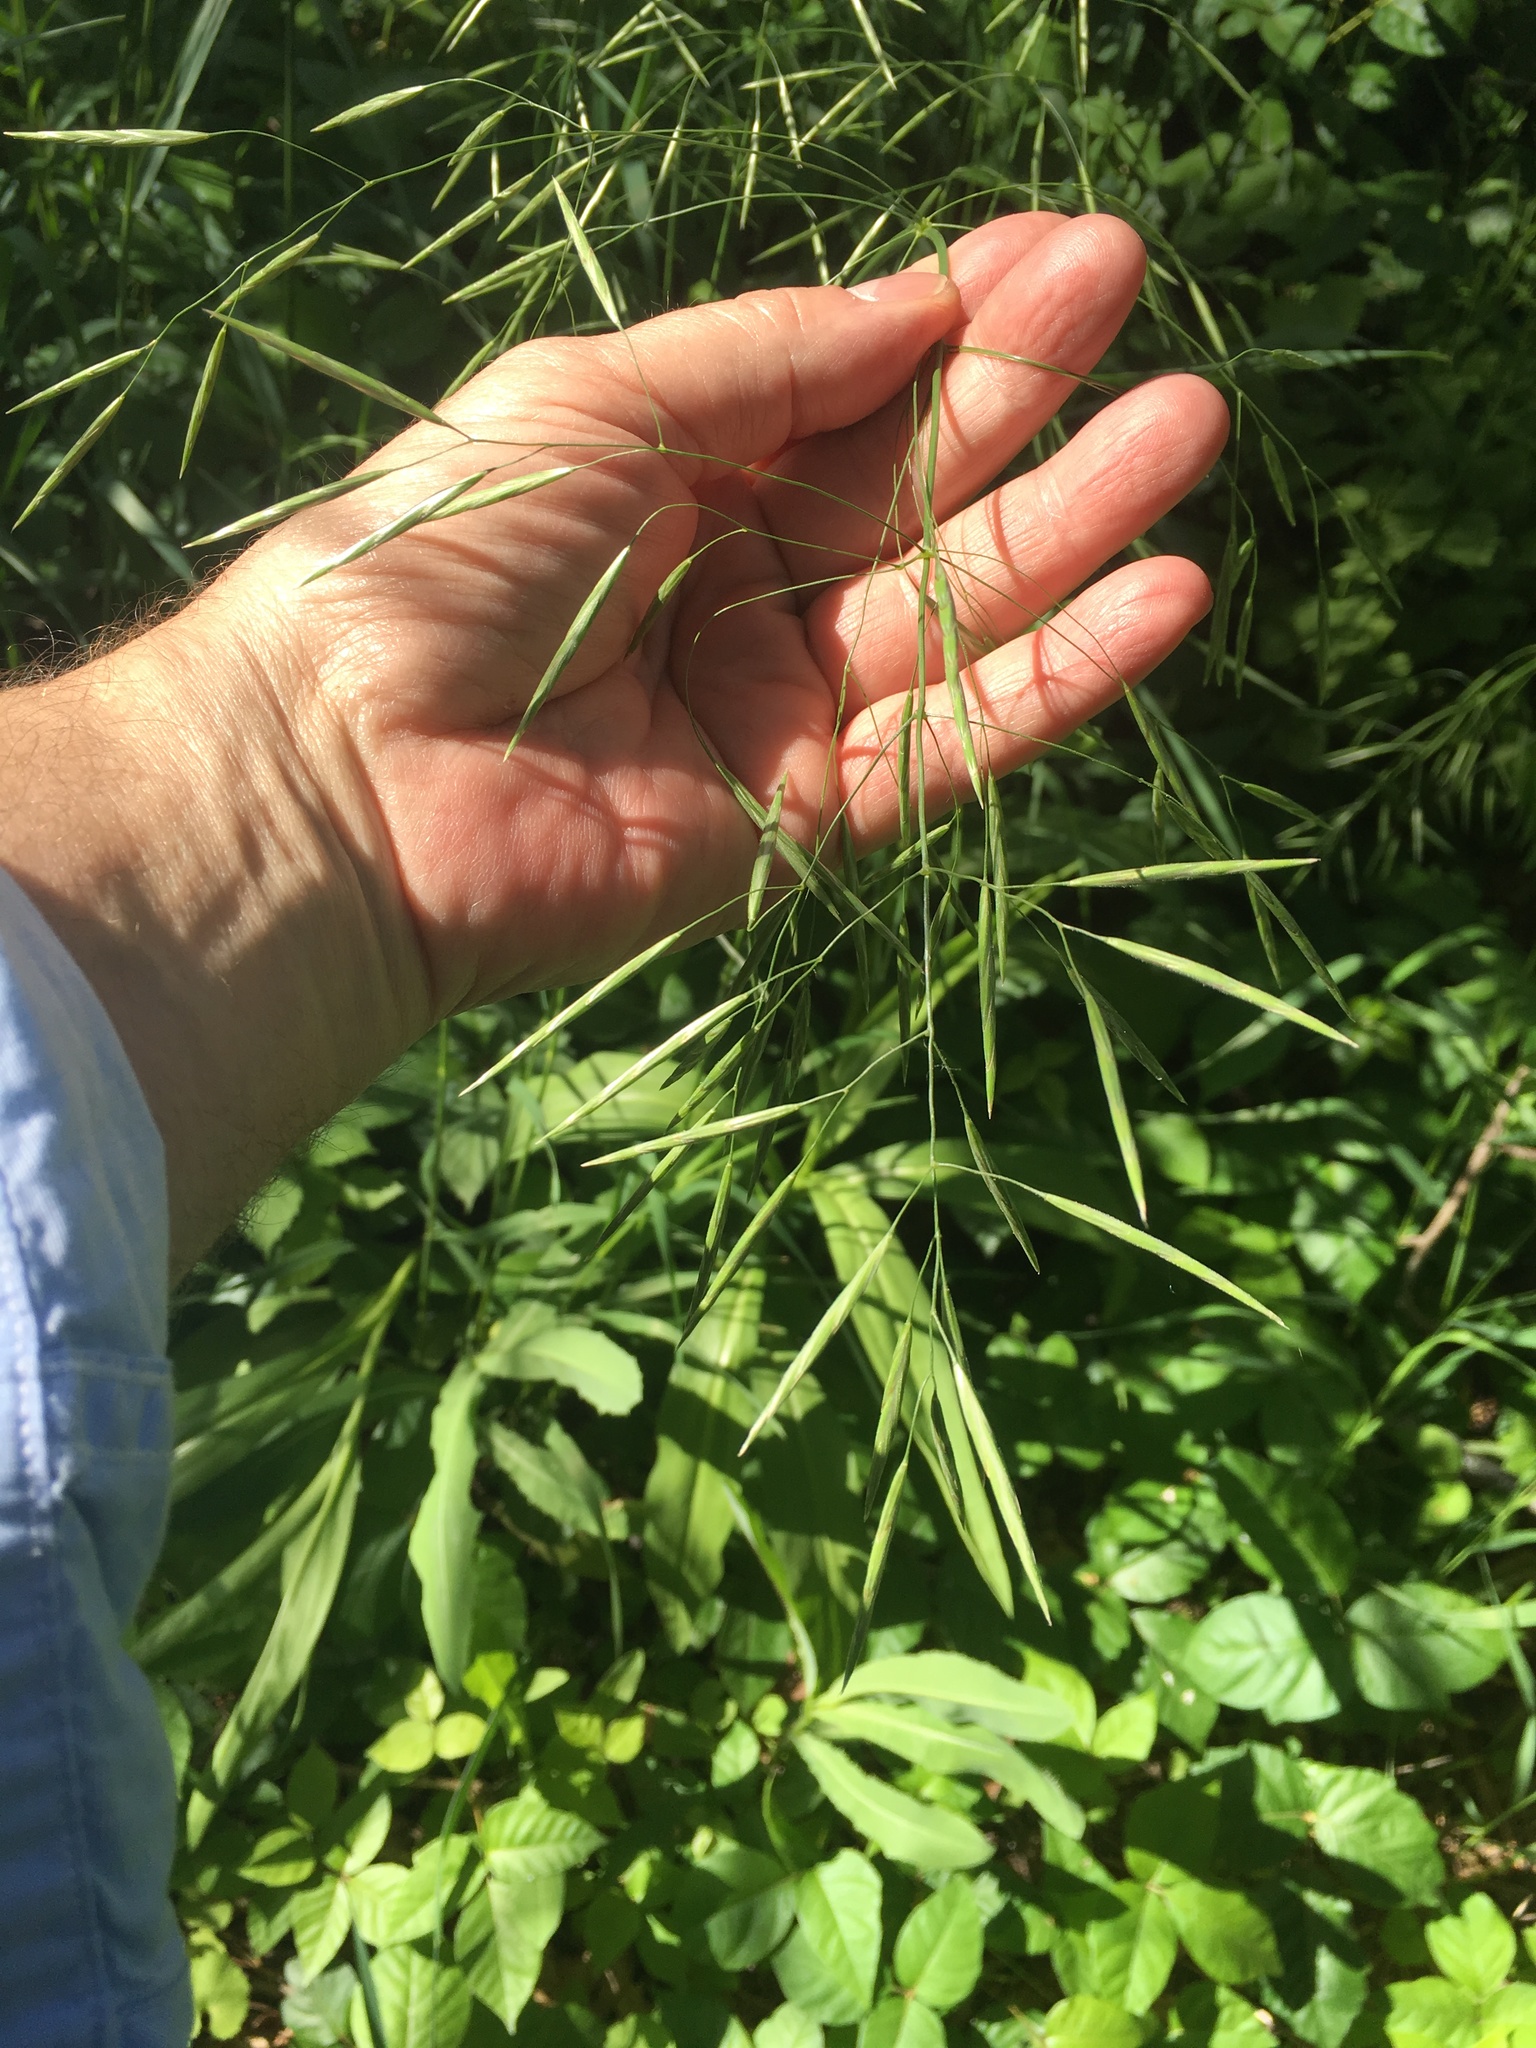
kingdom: Plantae
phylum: Tracheophyta
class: Liliopsida
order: Poales
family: Poaceae
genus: Bromus
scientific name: Bromus inermis
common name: Smooth brome
